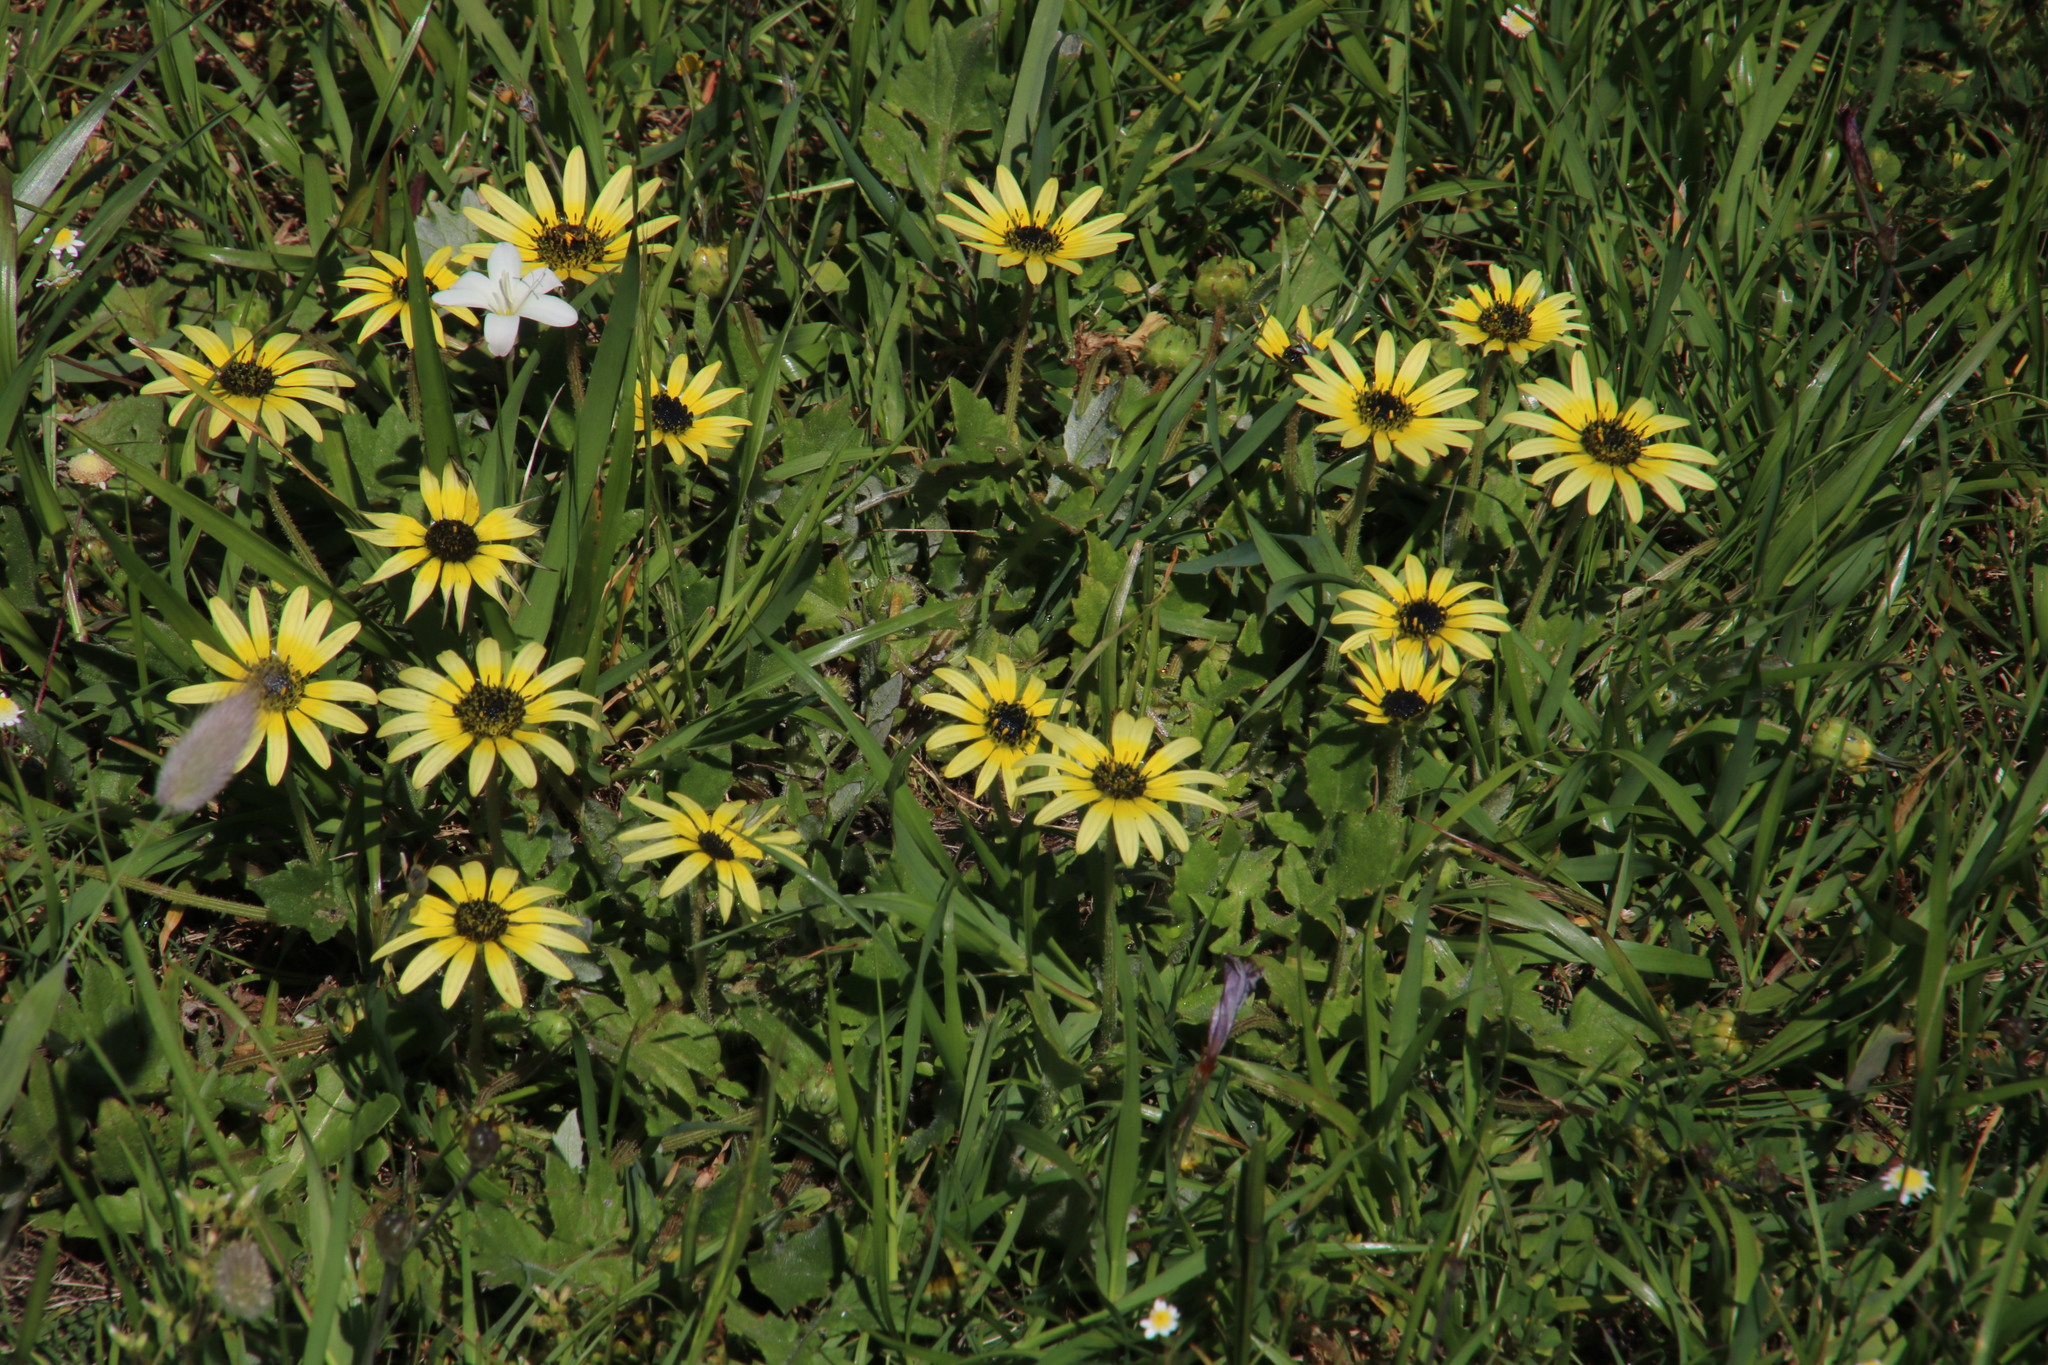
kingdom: Plantae
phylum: Tracheophyta
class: Magnoliopsida
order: Asterales
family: Asteraceae
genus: Arctotheca
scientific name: Arctotheca calendula
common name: Capeweed
